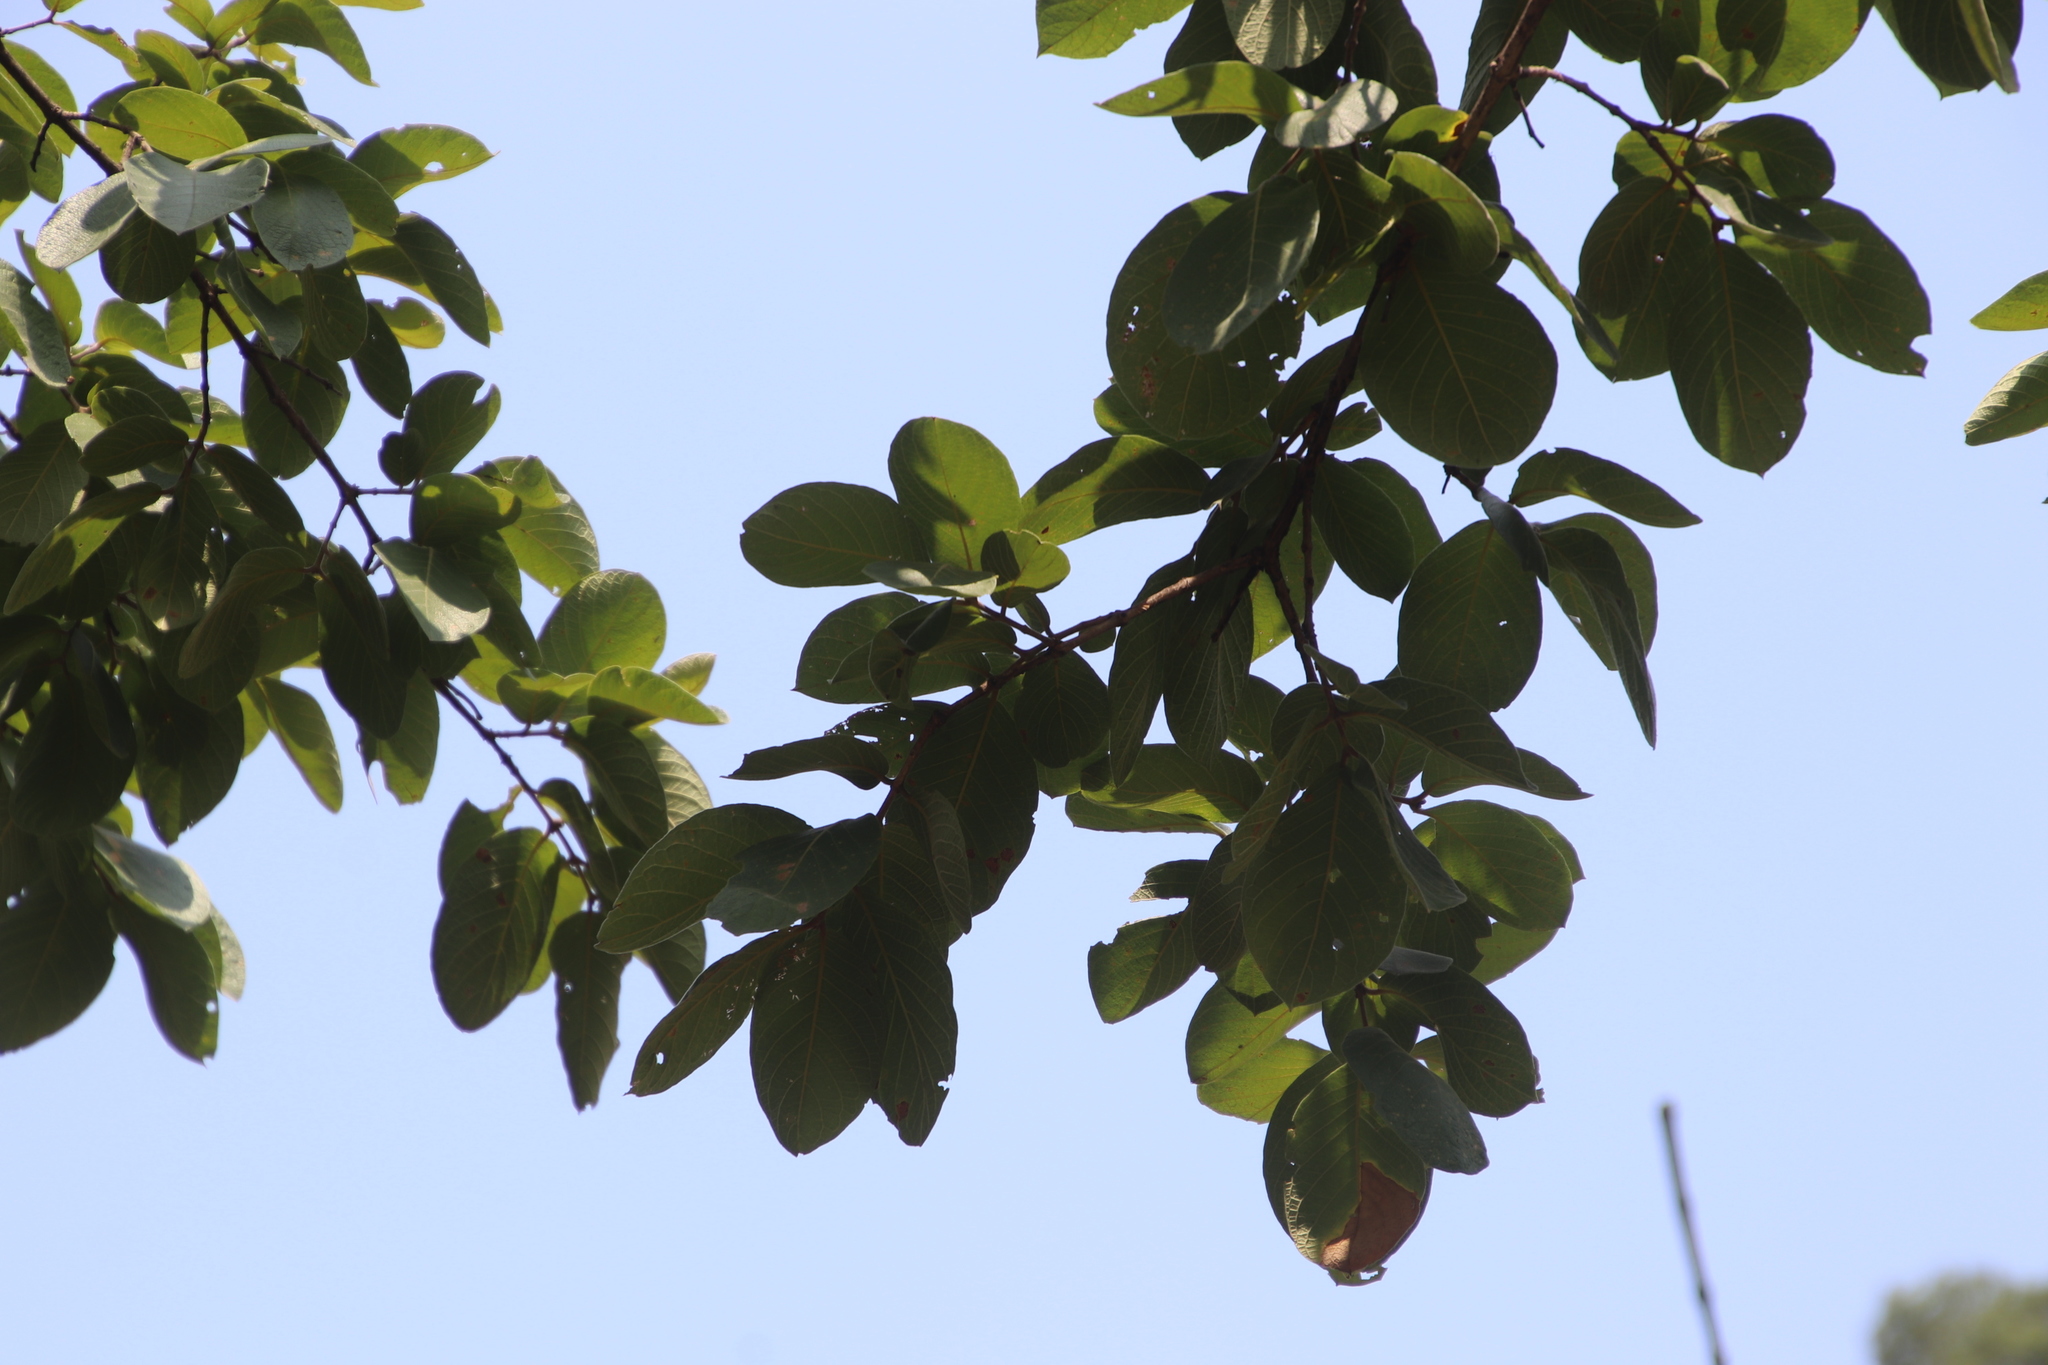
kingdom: Plantae
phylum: Tracheophyta
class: Magnoliopsida
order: Myrtales
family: Combretaceae
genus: Combretum
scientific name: Combretum molle
